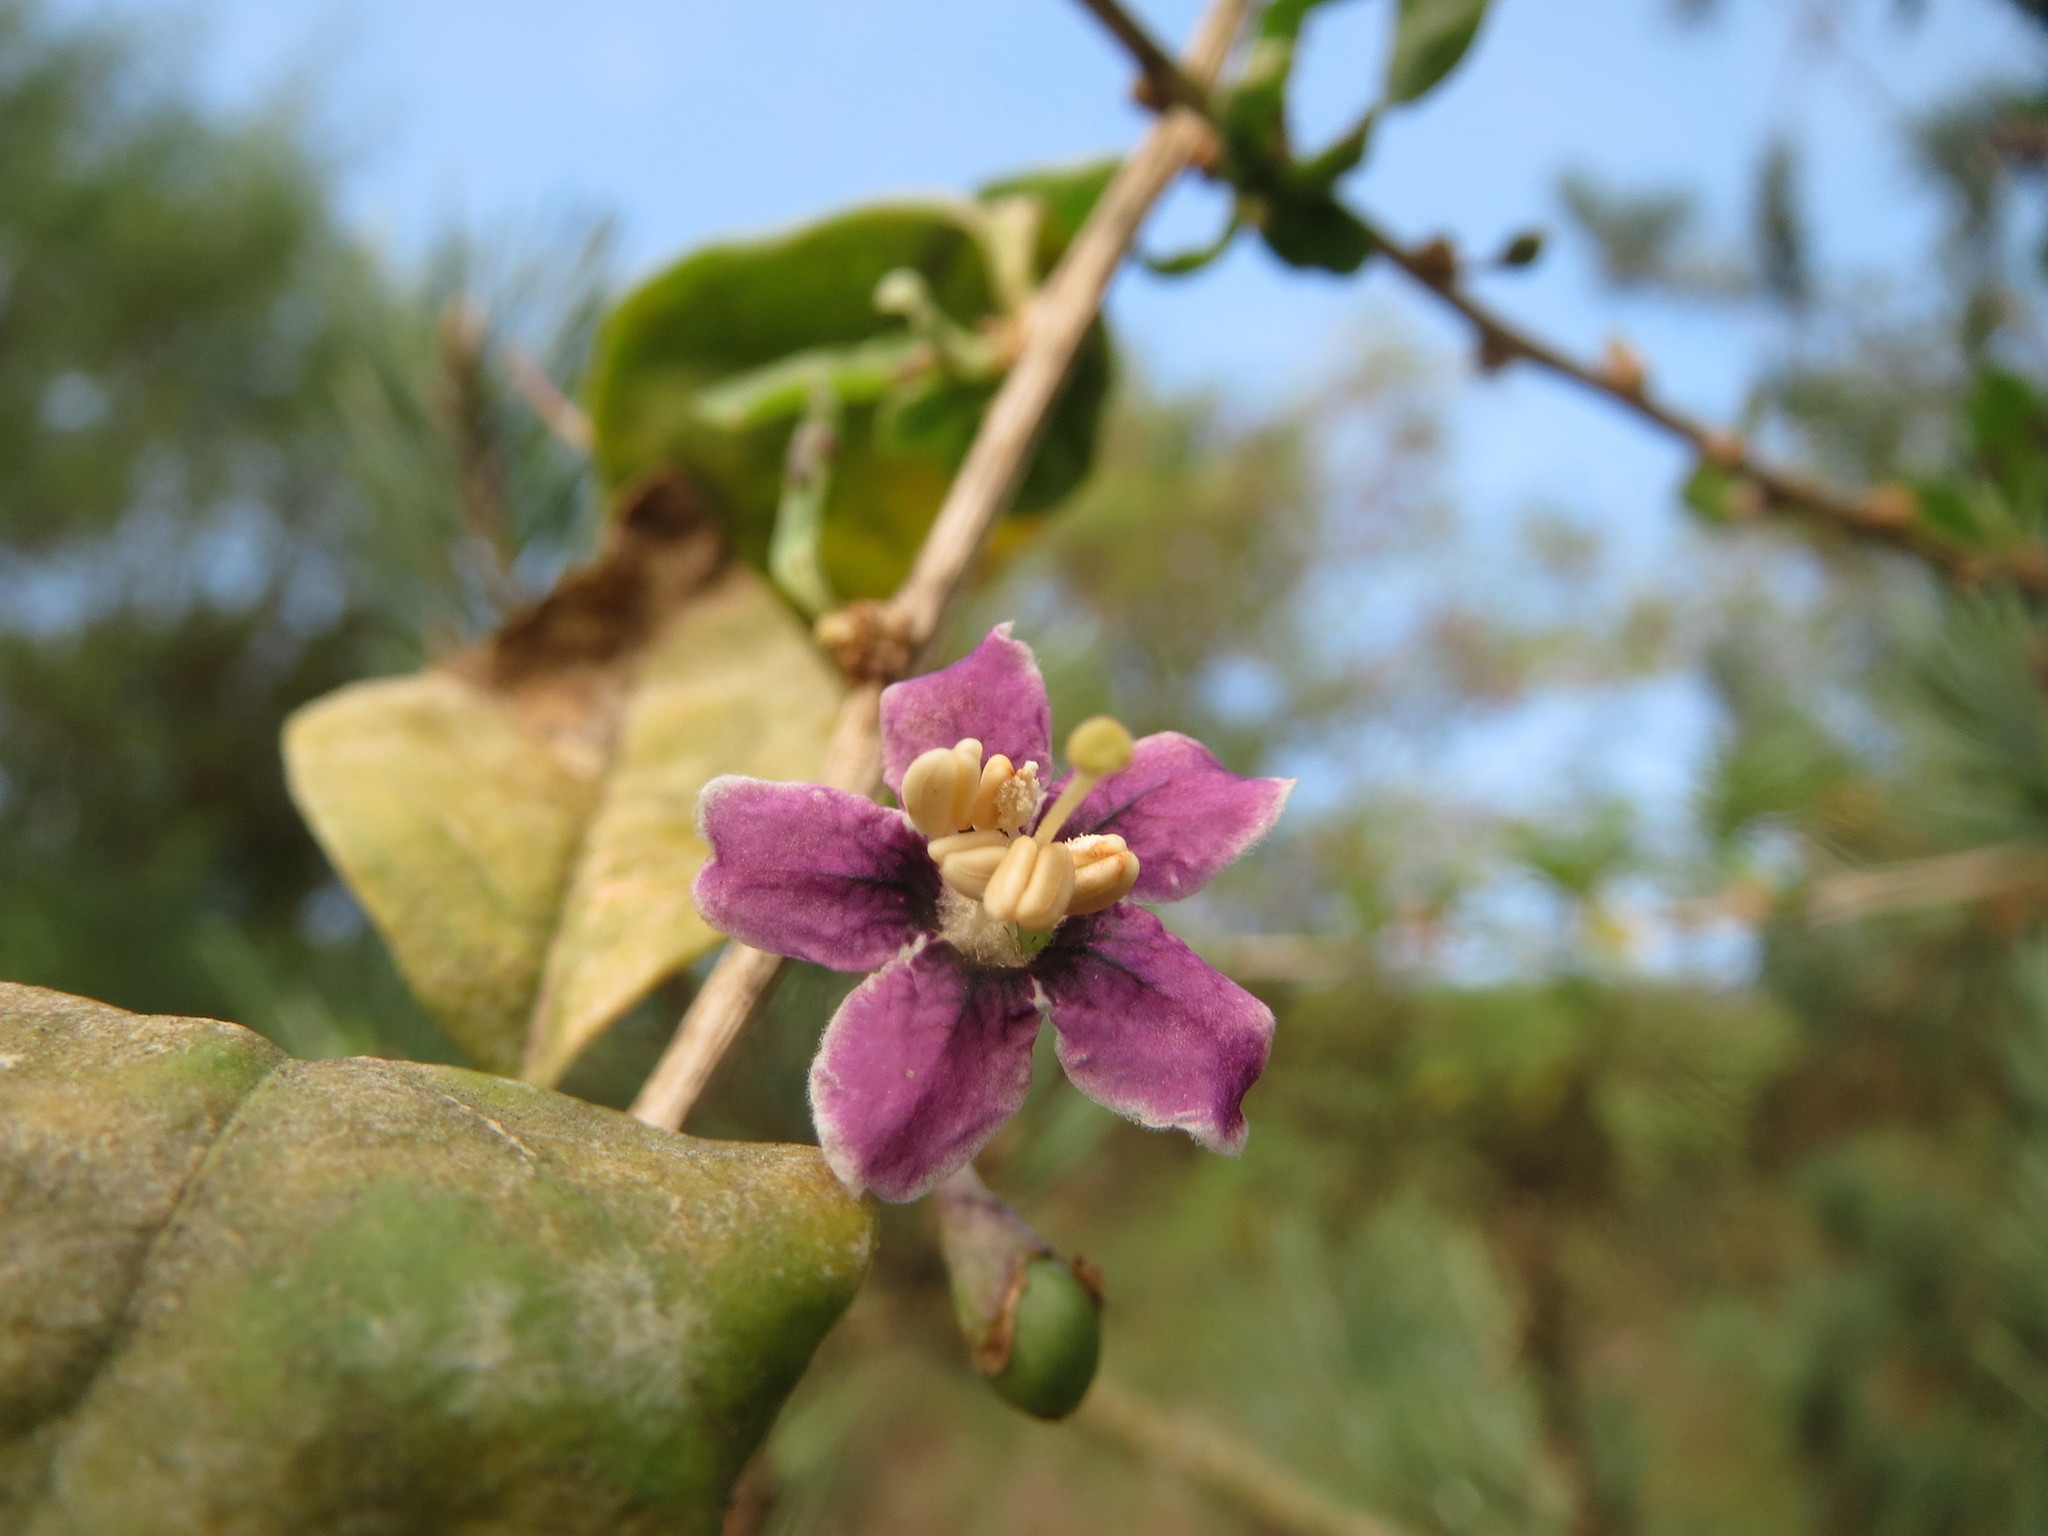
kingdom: Plantae
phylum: Tracheophyta
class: Magnoliopsida
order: Solanales
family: Solanaceae
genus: Lycium
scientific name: Lycium barbarum
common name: Duke of argyll's teaplant
